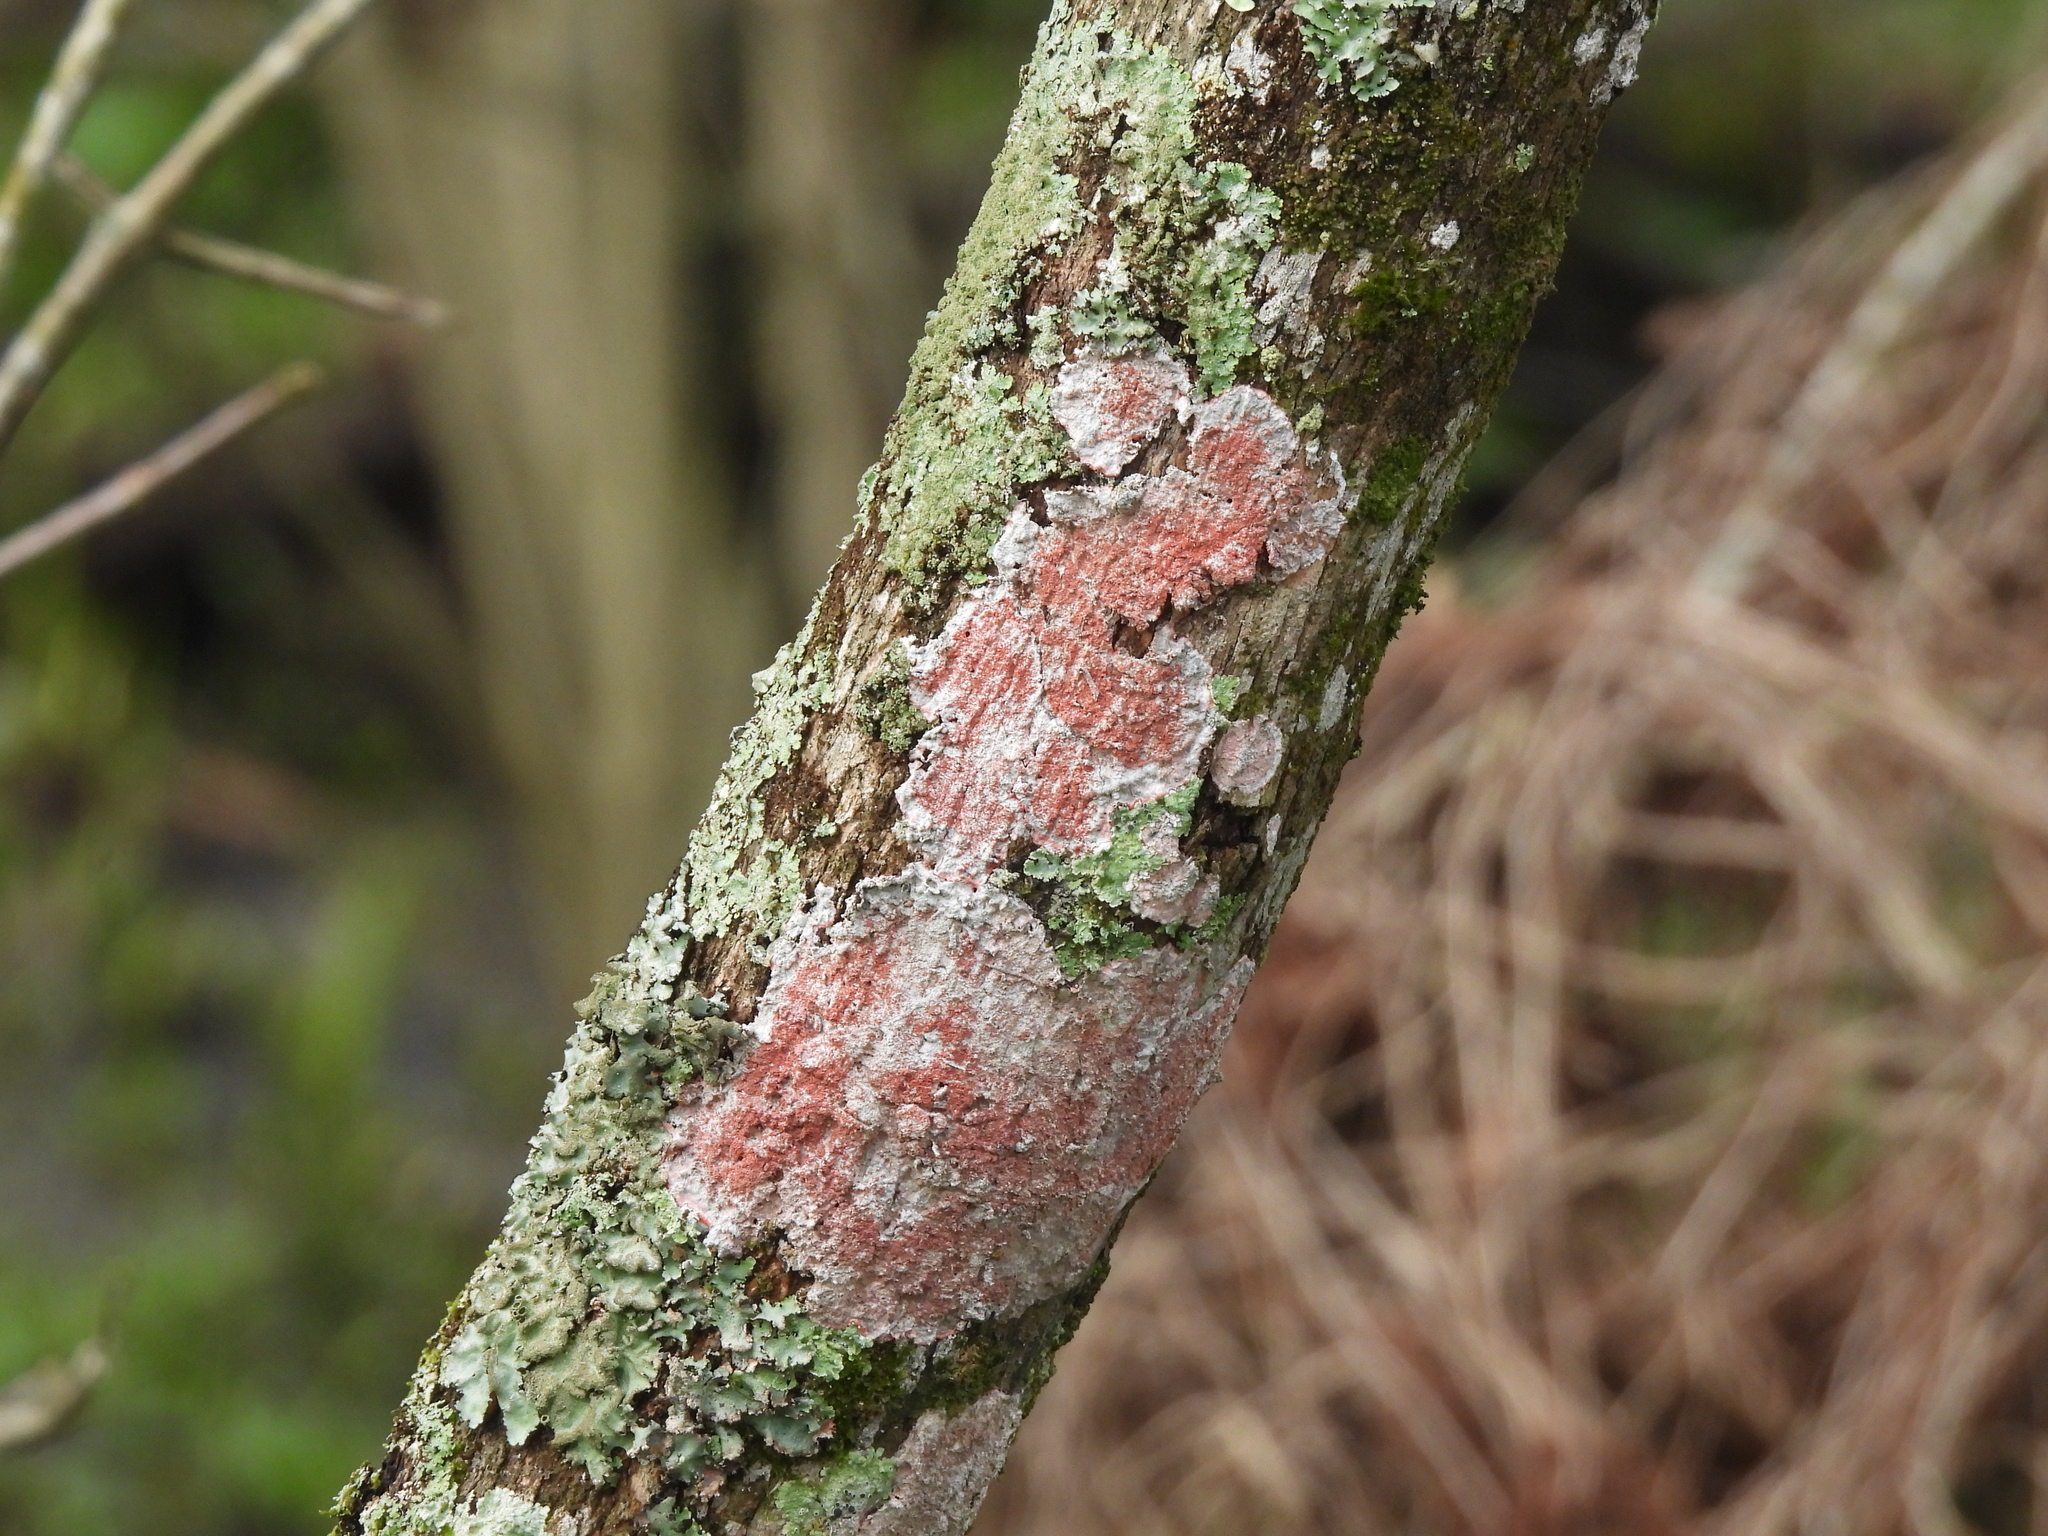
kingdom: Fungi
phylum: Ascomycota
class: Arthoniomycetes
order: Arthoniales
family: Arthoniaceae
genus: Herpothallon
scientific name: Herpothallon rubrocinctum
